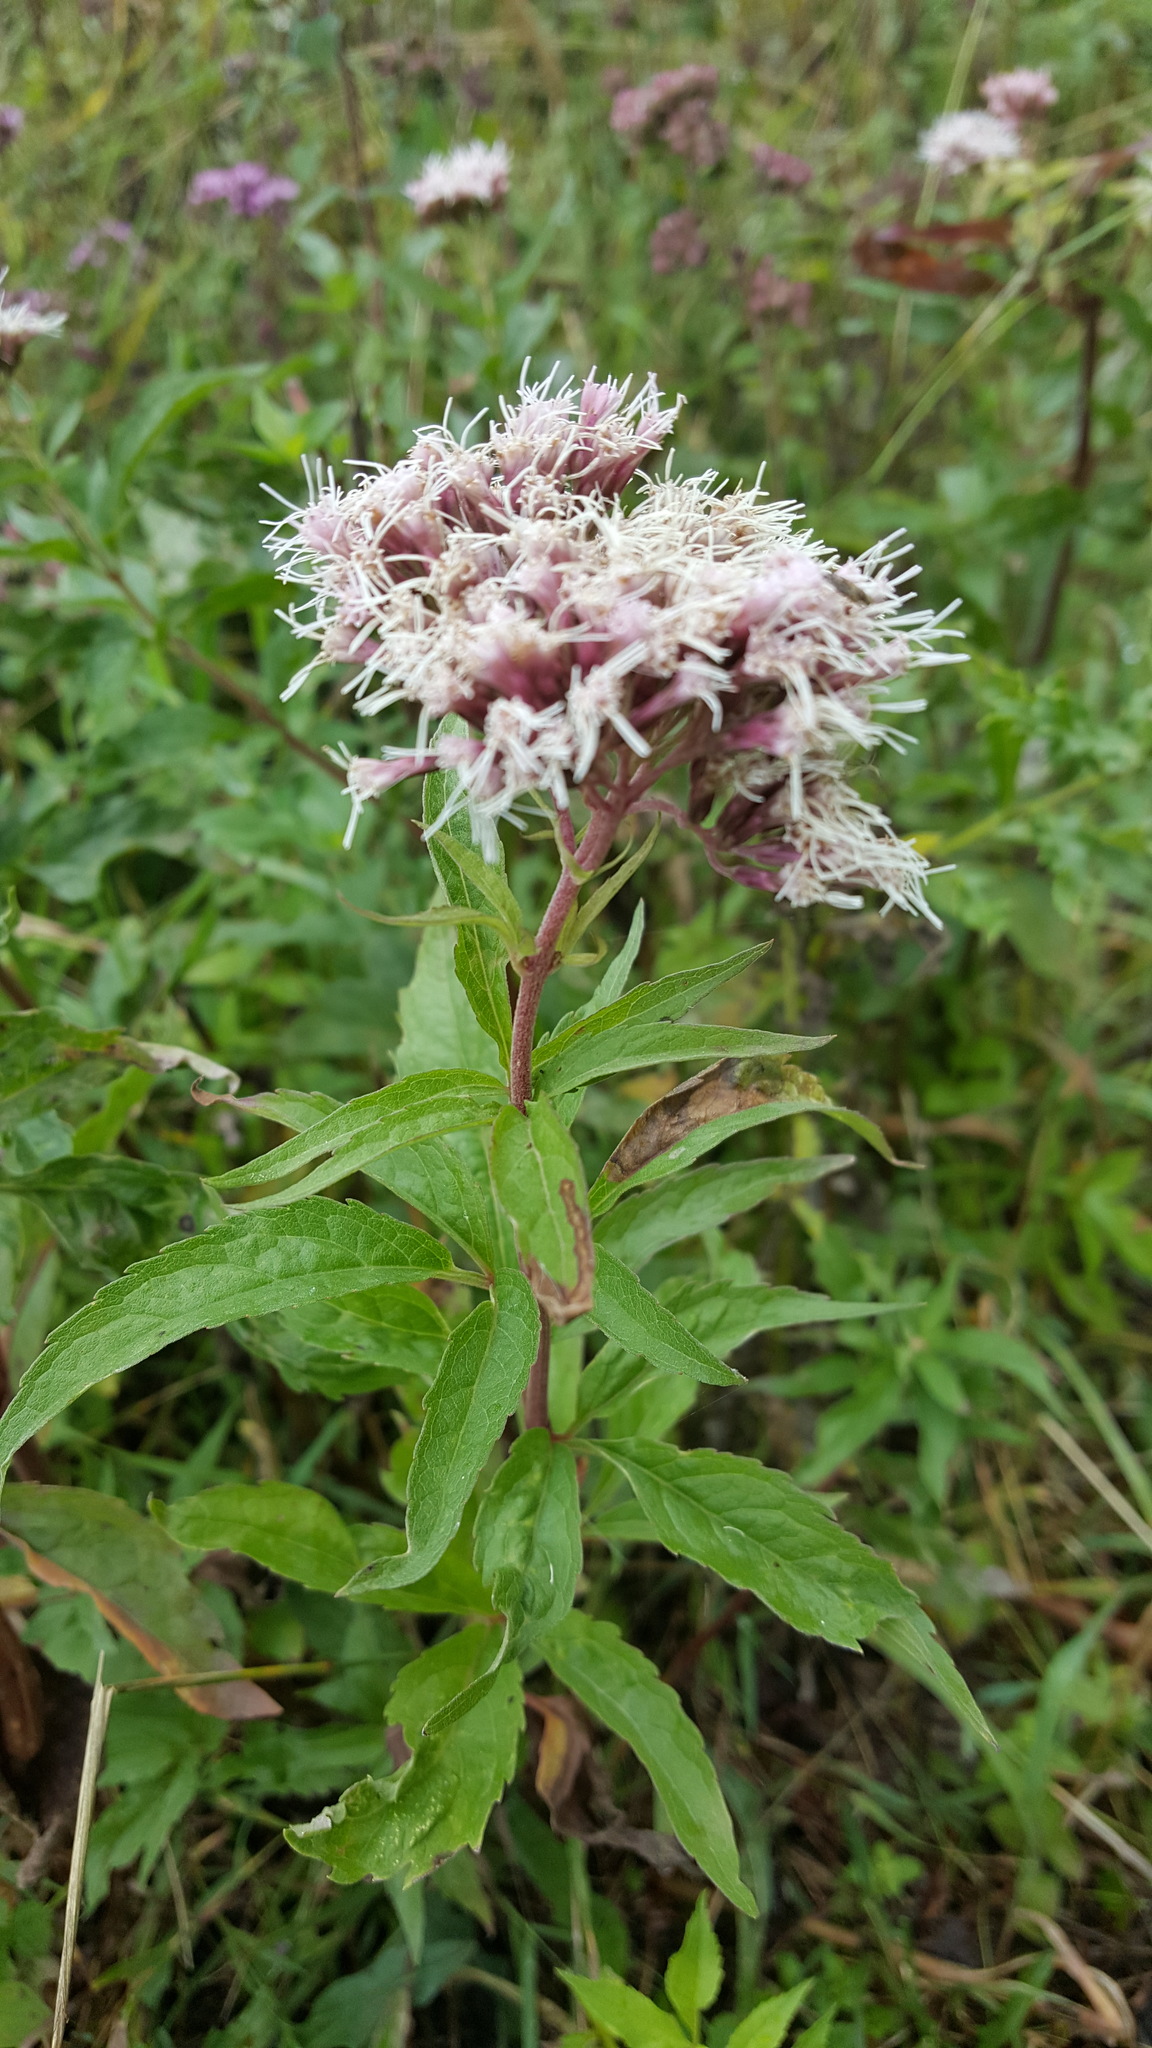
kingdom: Plantae
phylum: Tracheophyta
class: Magnoliopsida
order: Asterales
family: Asteraceae
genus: Eupatorium
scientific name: Eupatorium cannabinum
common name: Hemp-agrimony
